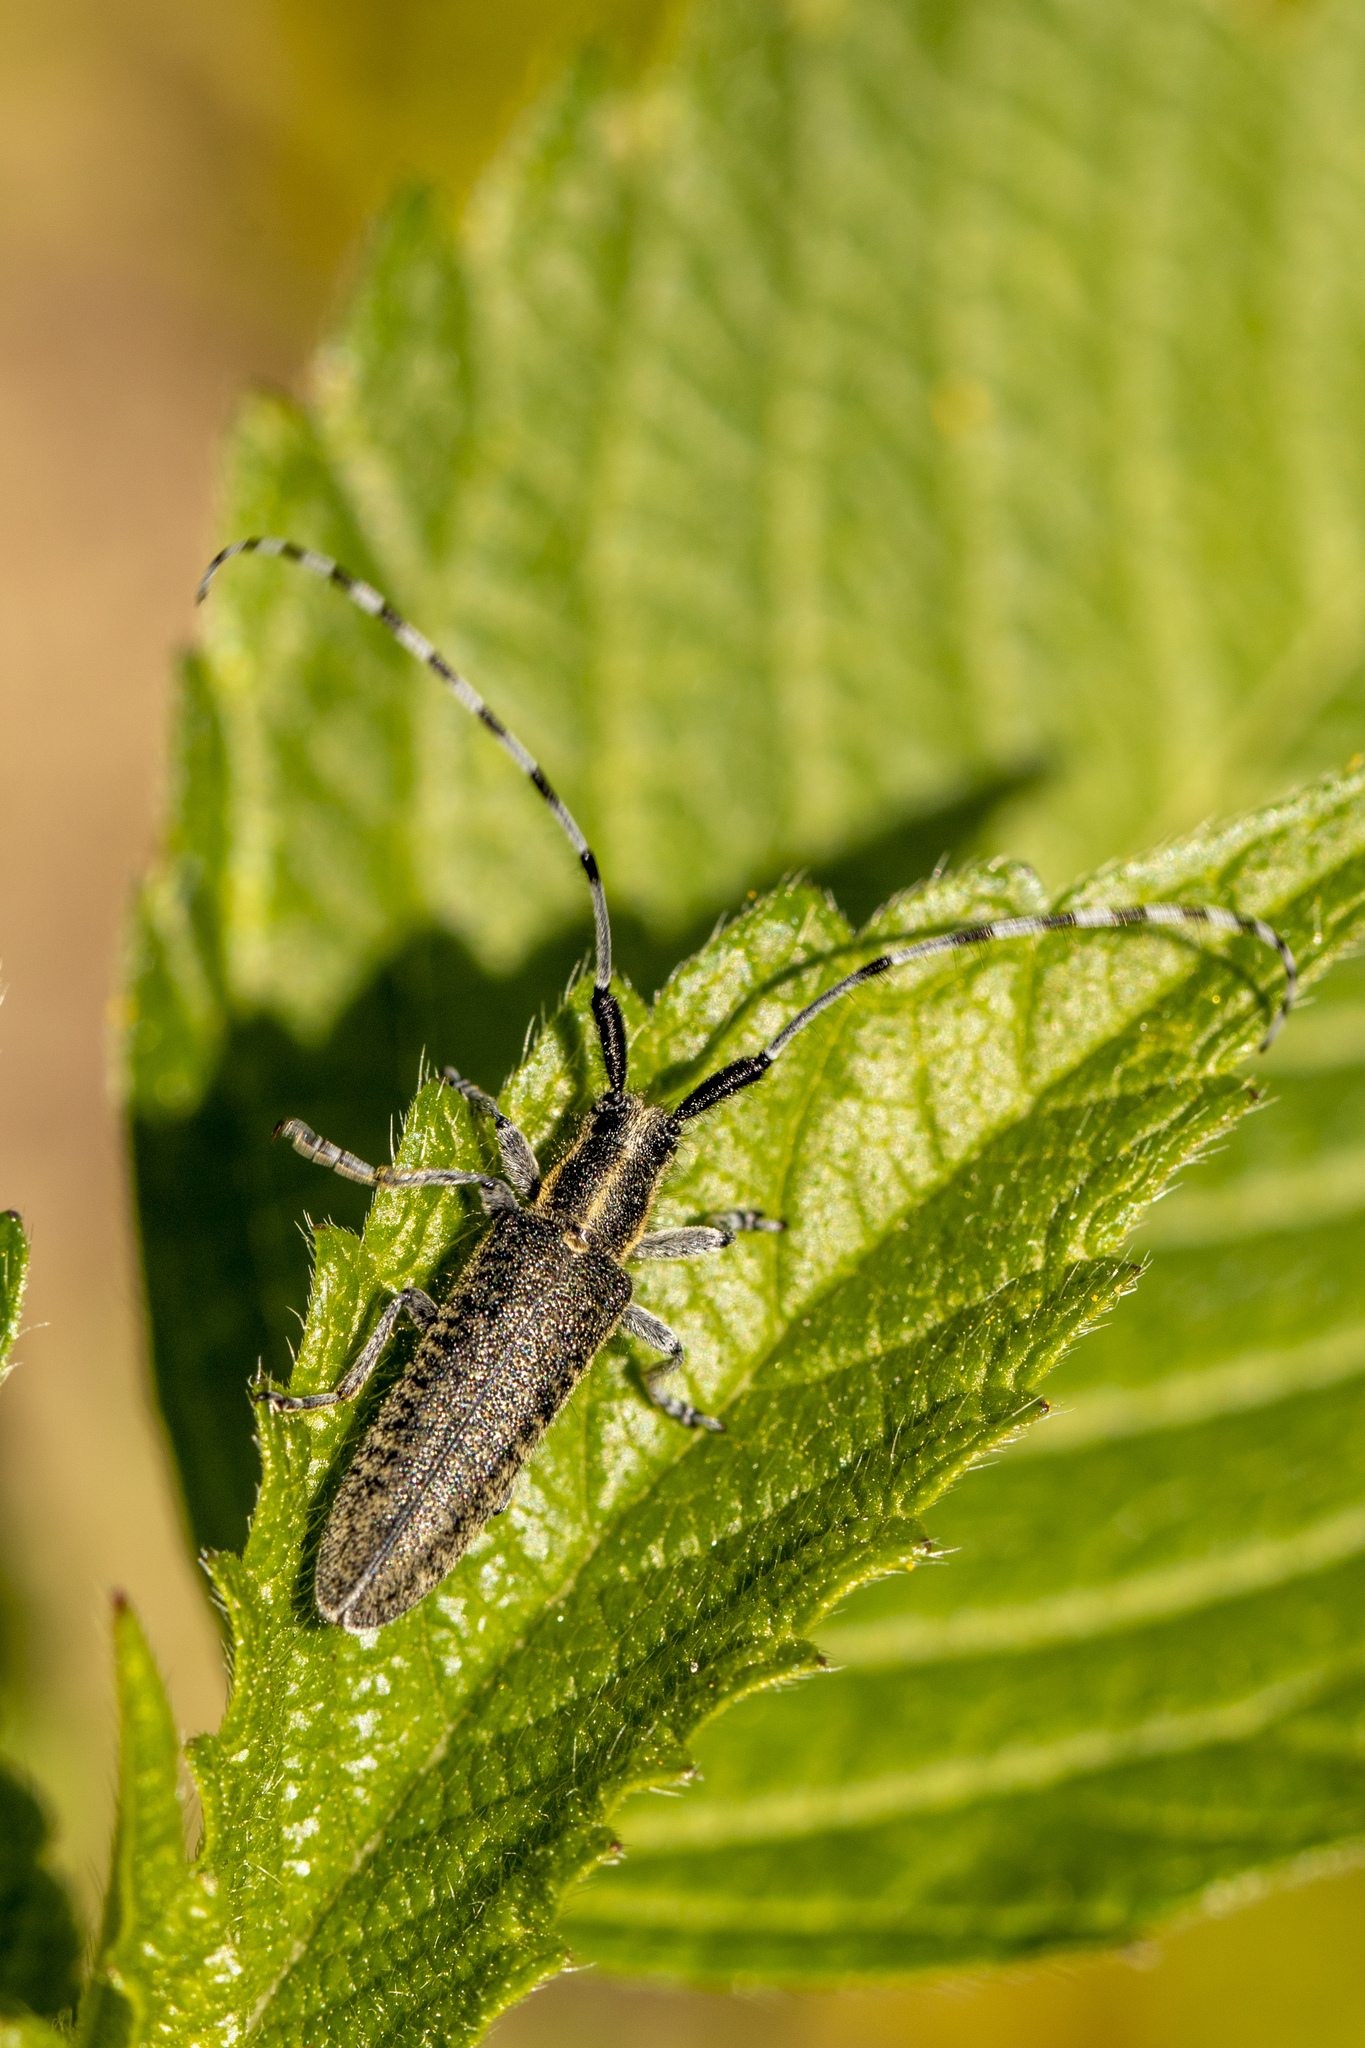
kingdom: Animalia
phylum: Arthropoda
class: Insecta
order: Coleoptera
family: Cerambycidae
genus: Agapanthia
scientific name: Agapanthia villosoviridescens
